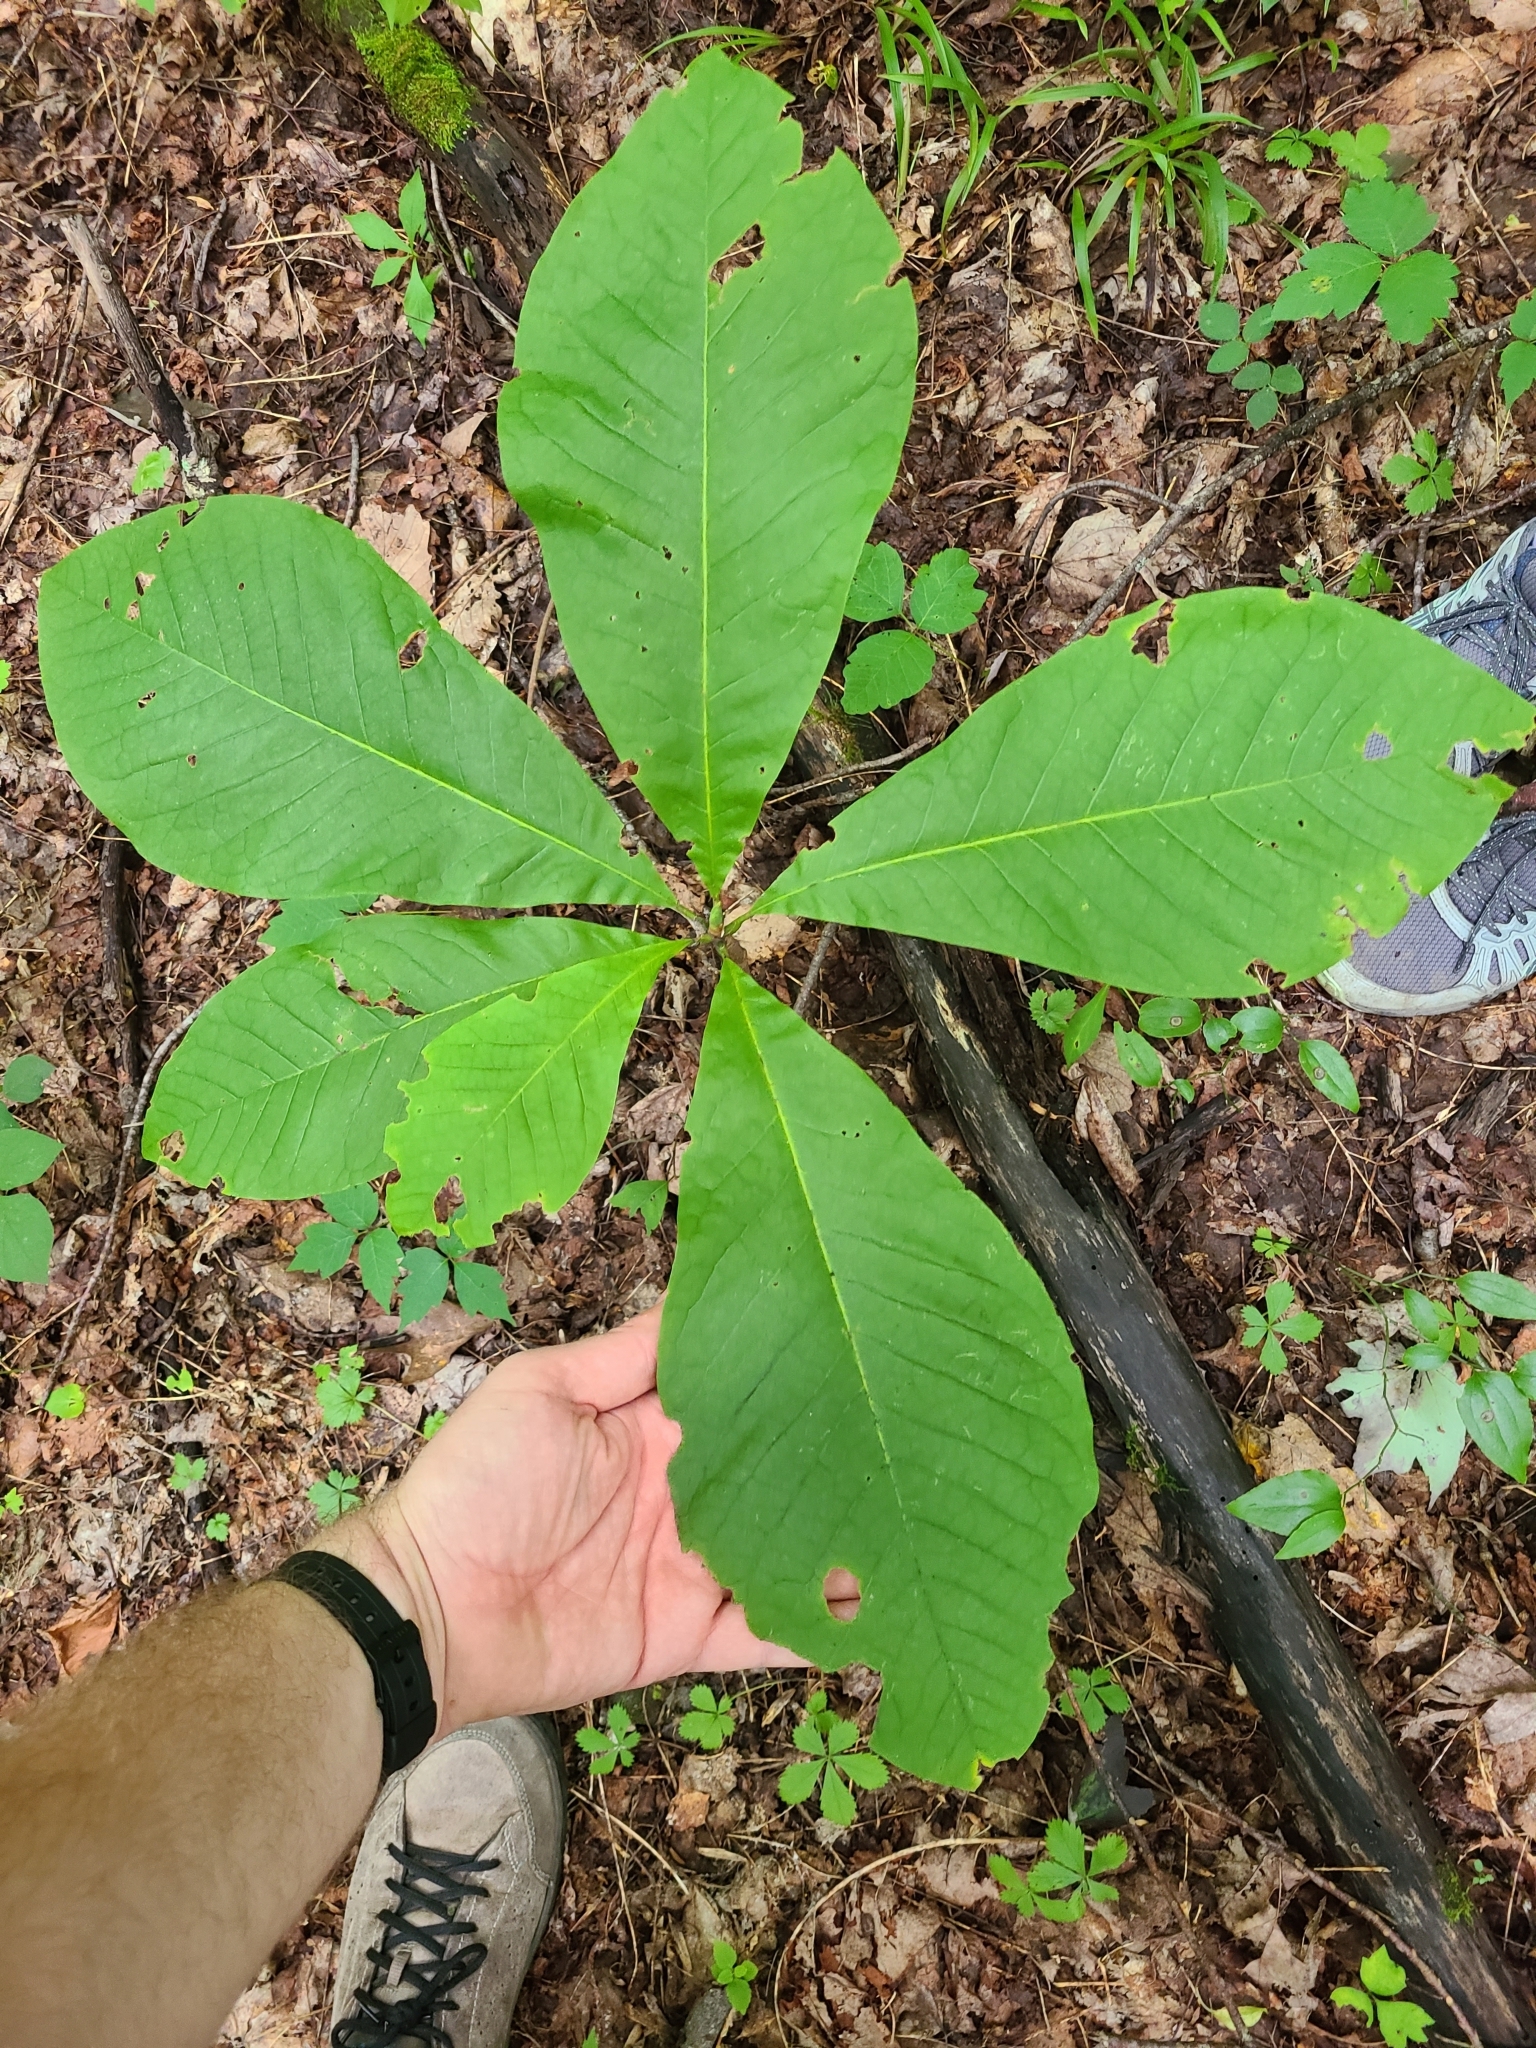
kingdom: Plantae
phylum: Tracheophyta
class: Magnoliopsida
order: Magnoliales
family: Magnoliaceae
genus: Magnolia
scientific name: Magnolia tripetala
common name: Umbrella magnolia
